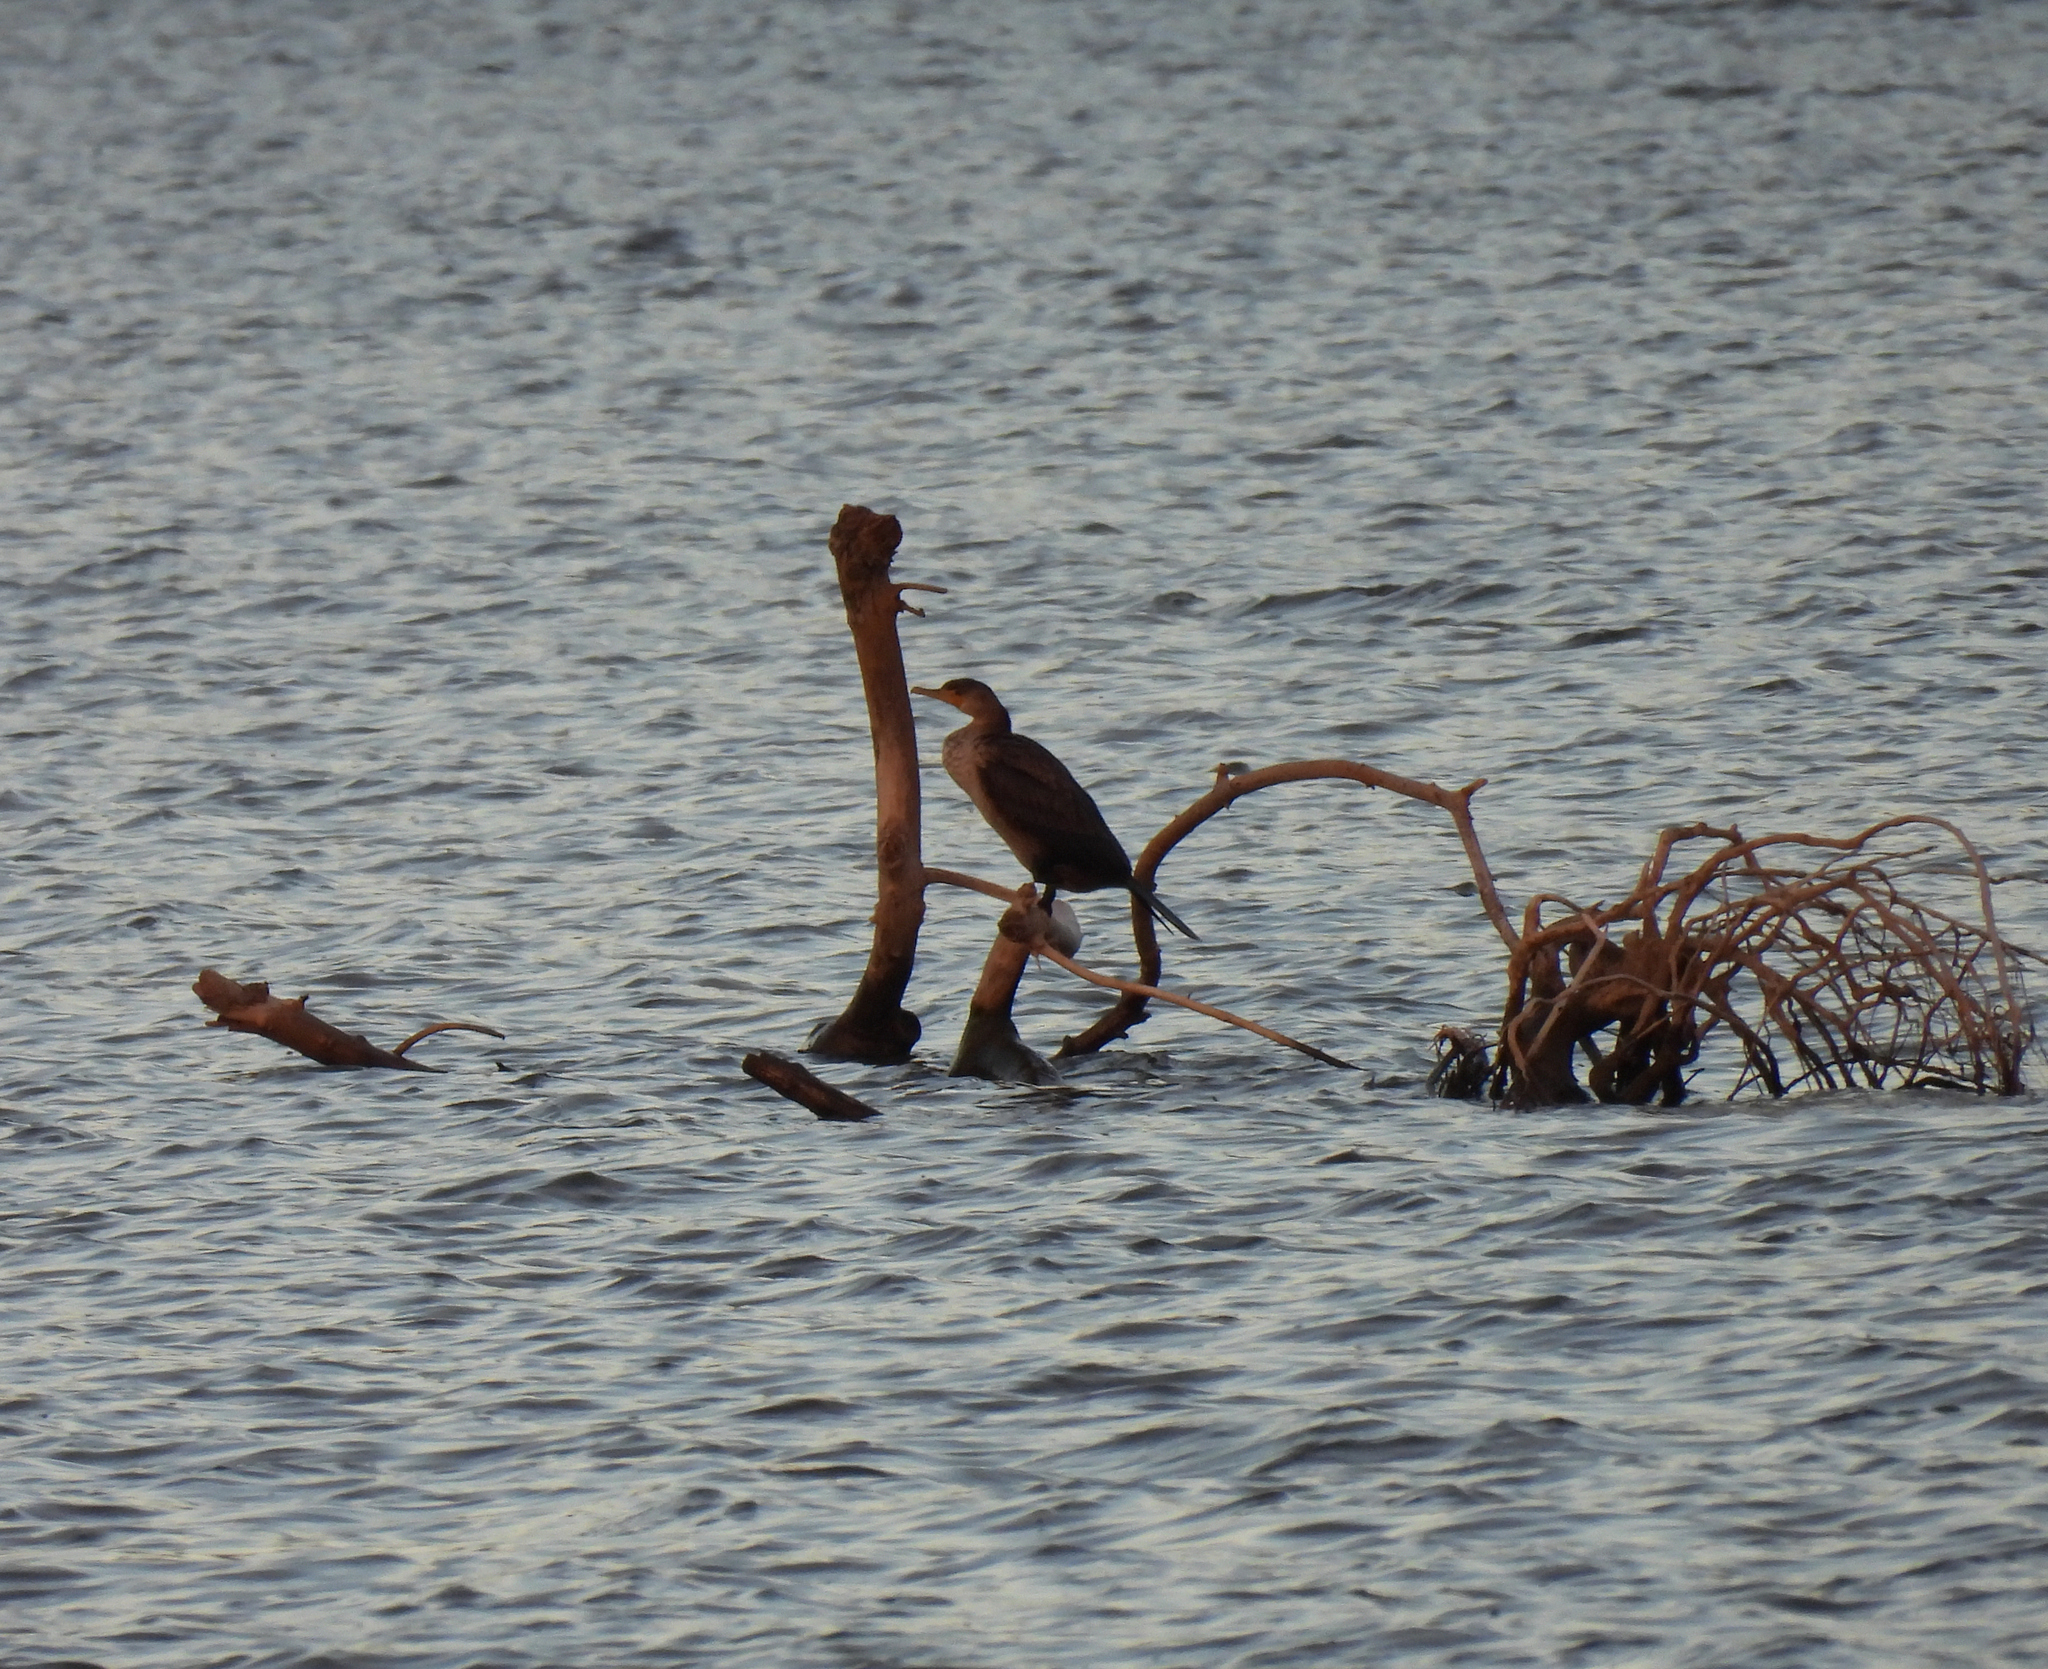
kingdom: Animalia
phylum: Chordata
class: Aves
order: Suliformes
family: Phalacrocoracidae
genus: Phalacrocorax
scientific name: Phalacrocorax auritus
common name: Double-crested cormorant
